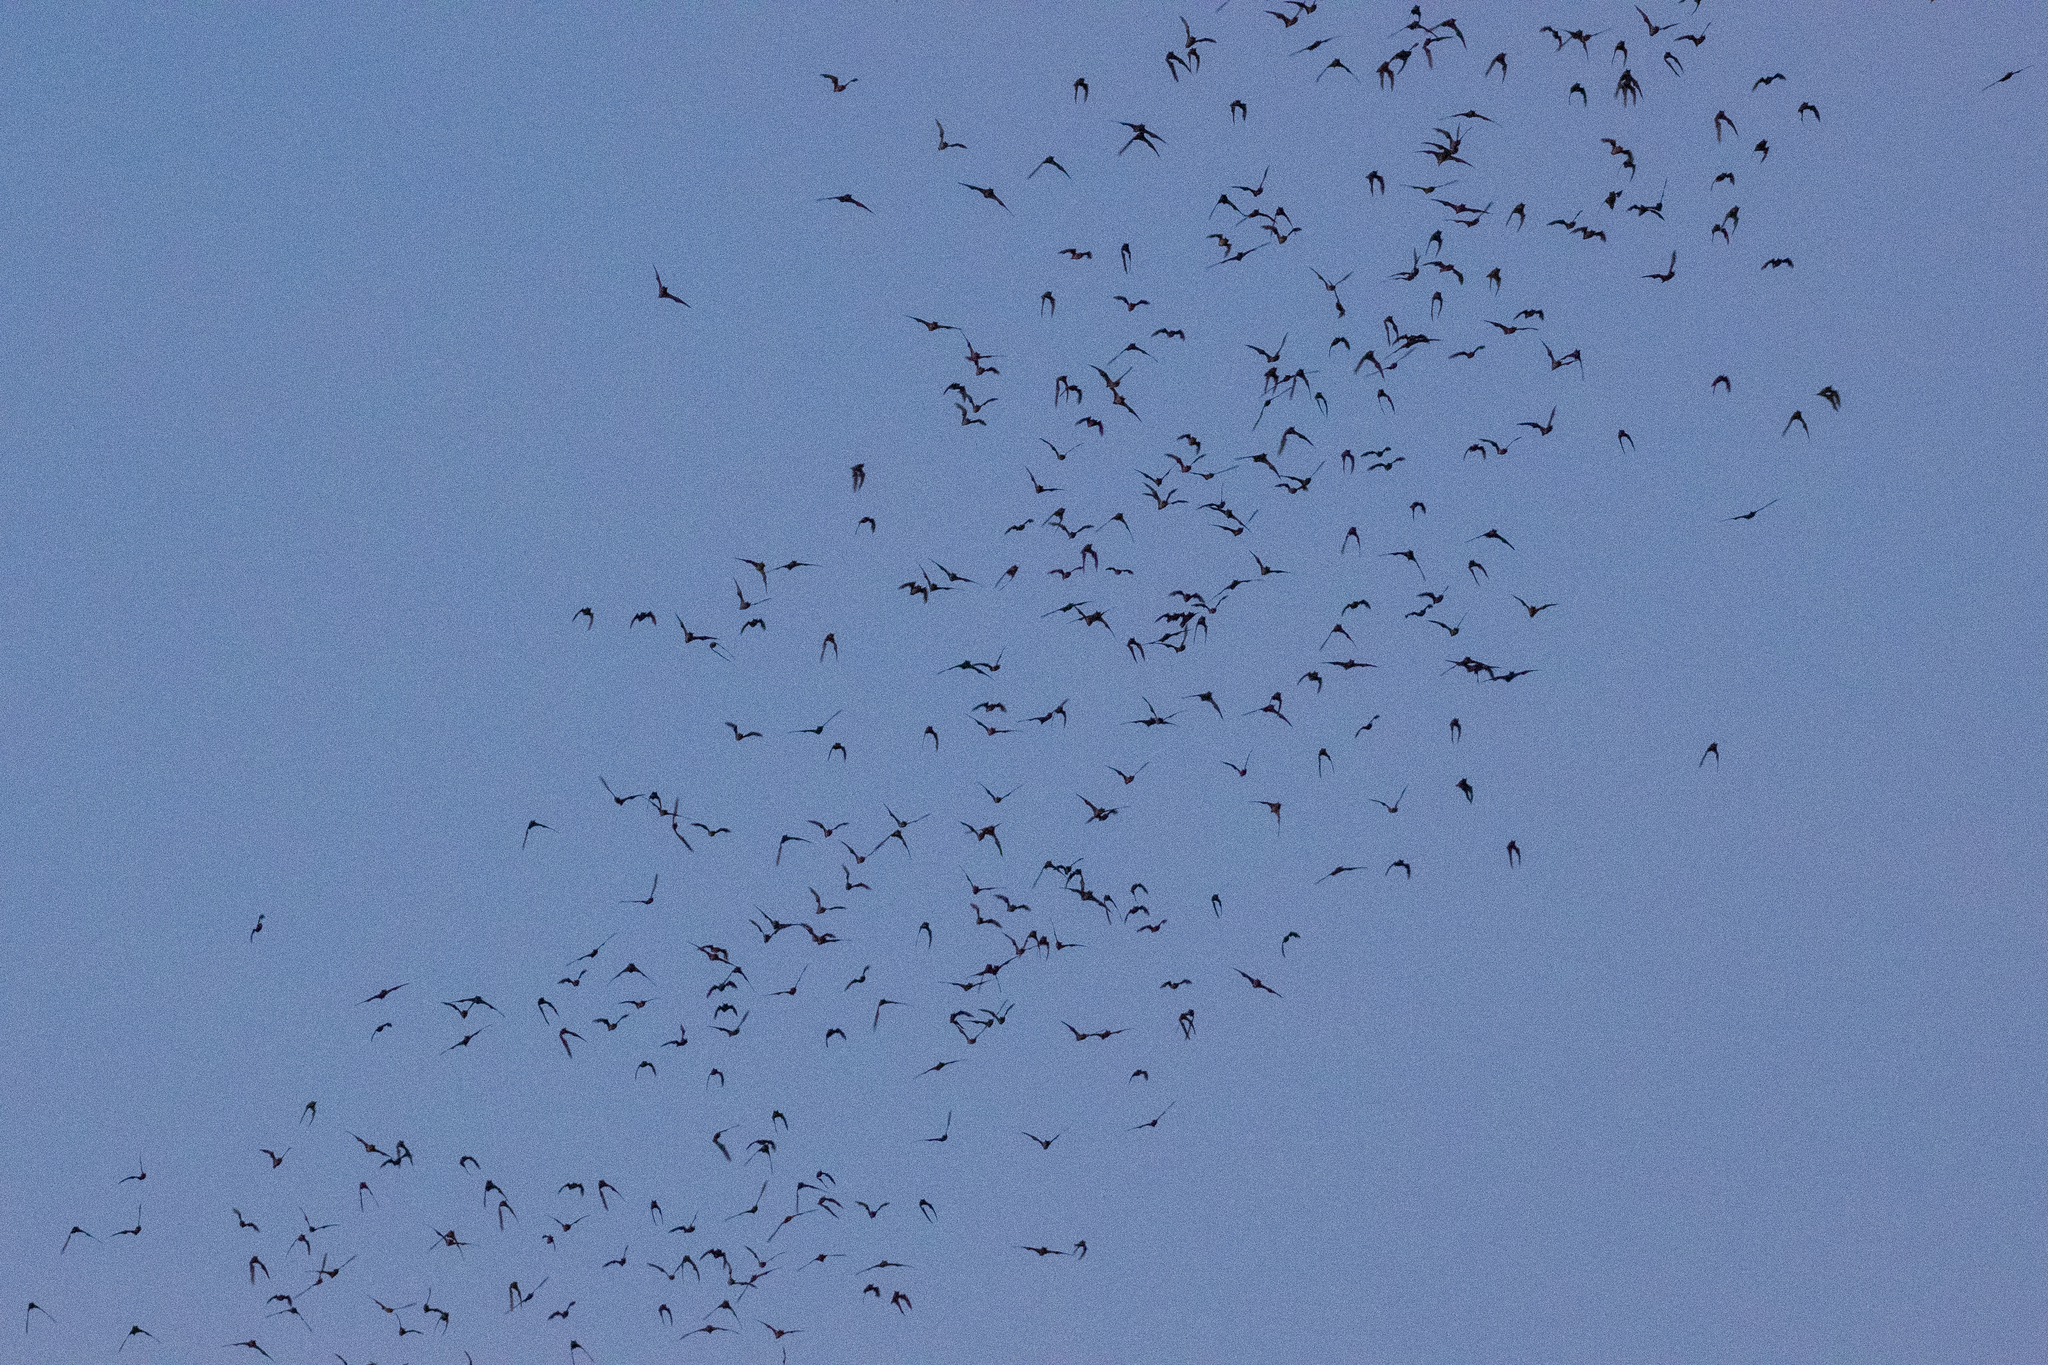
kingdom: Animalia
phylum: Chordata
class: Mammalia
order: Chiroptera
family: Molossidae
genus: Tadarida
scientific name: Tadarida brasiliensis
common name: Mexican free-tailed bat
